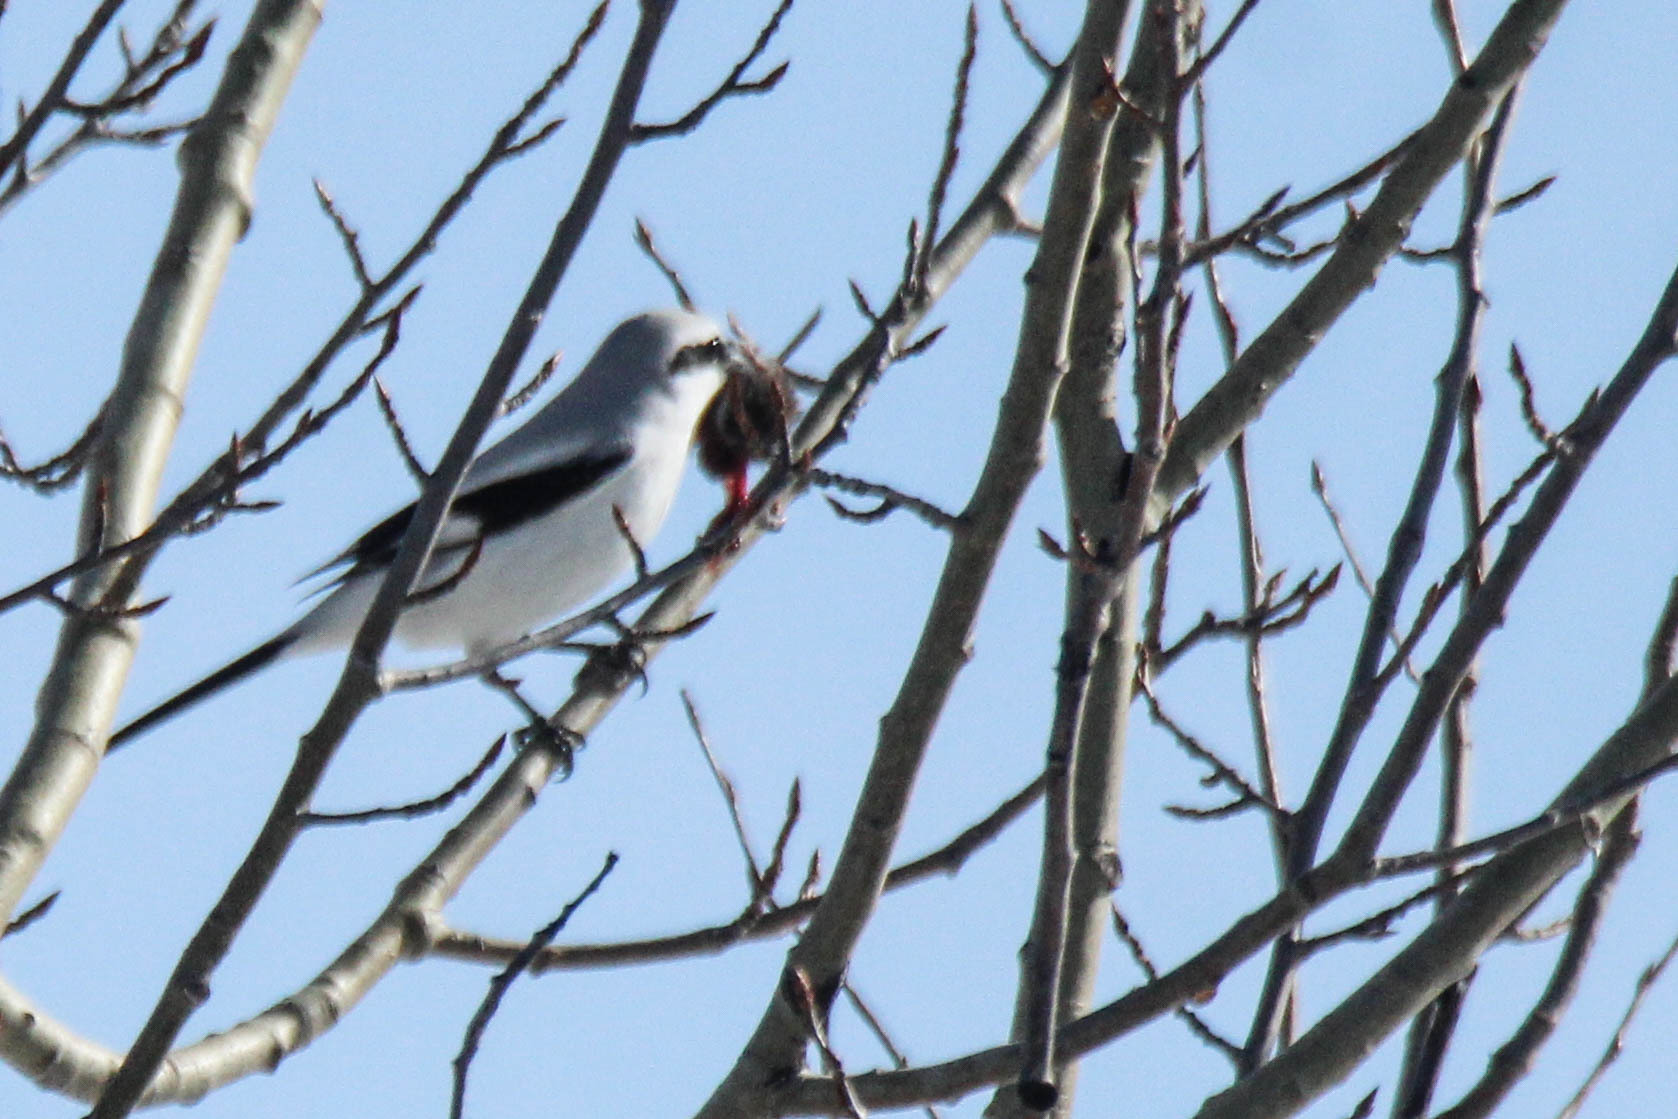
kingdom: Animalia
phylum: Chordata
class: Aves
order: Passeriformes
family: Laniidae
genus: Lanius
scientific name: Lanius excubitor
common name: Great grey shrike
